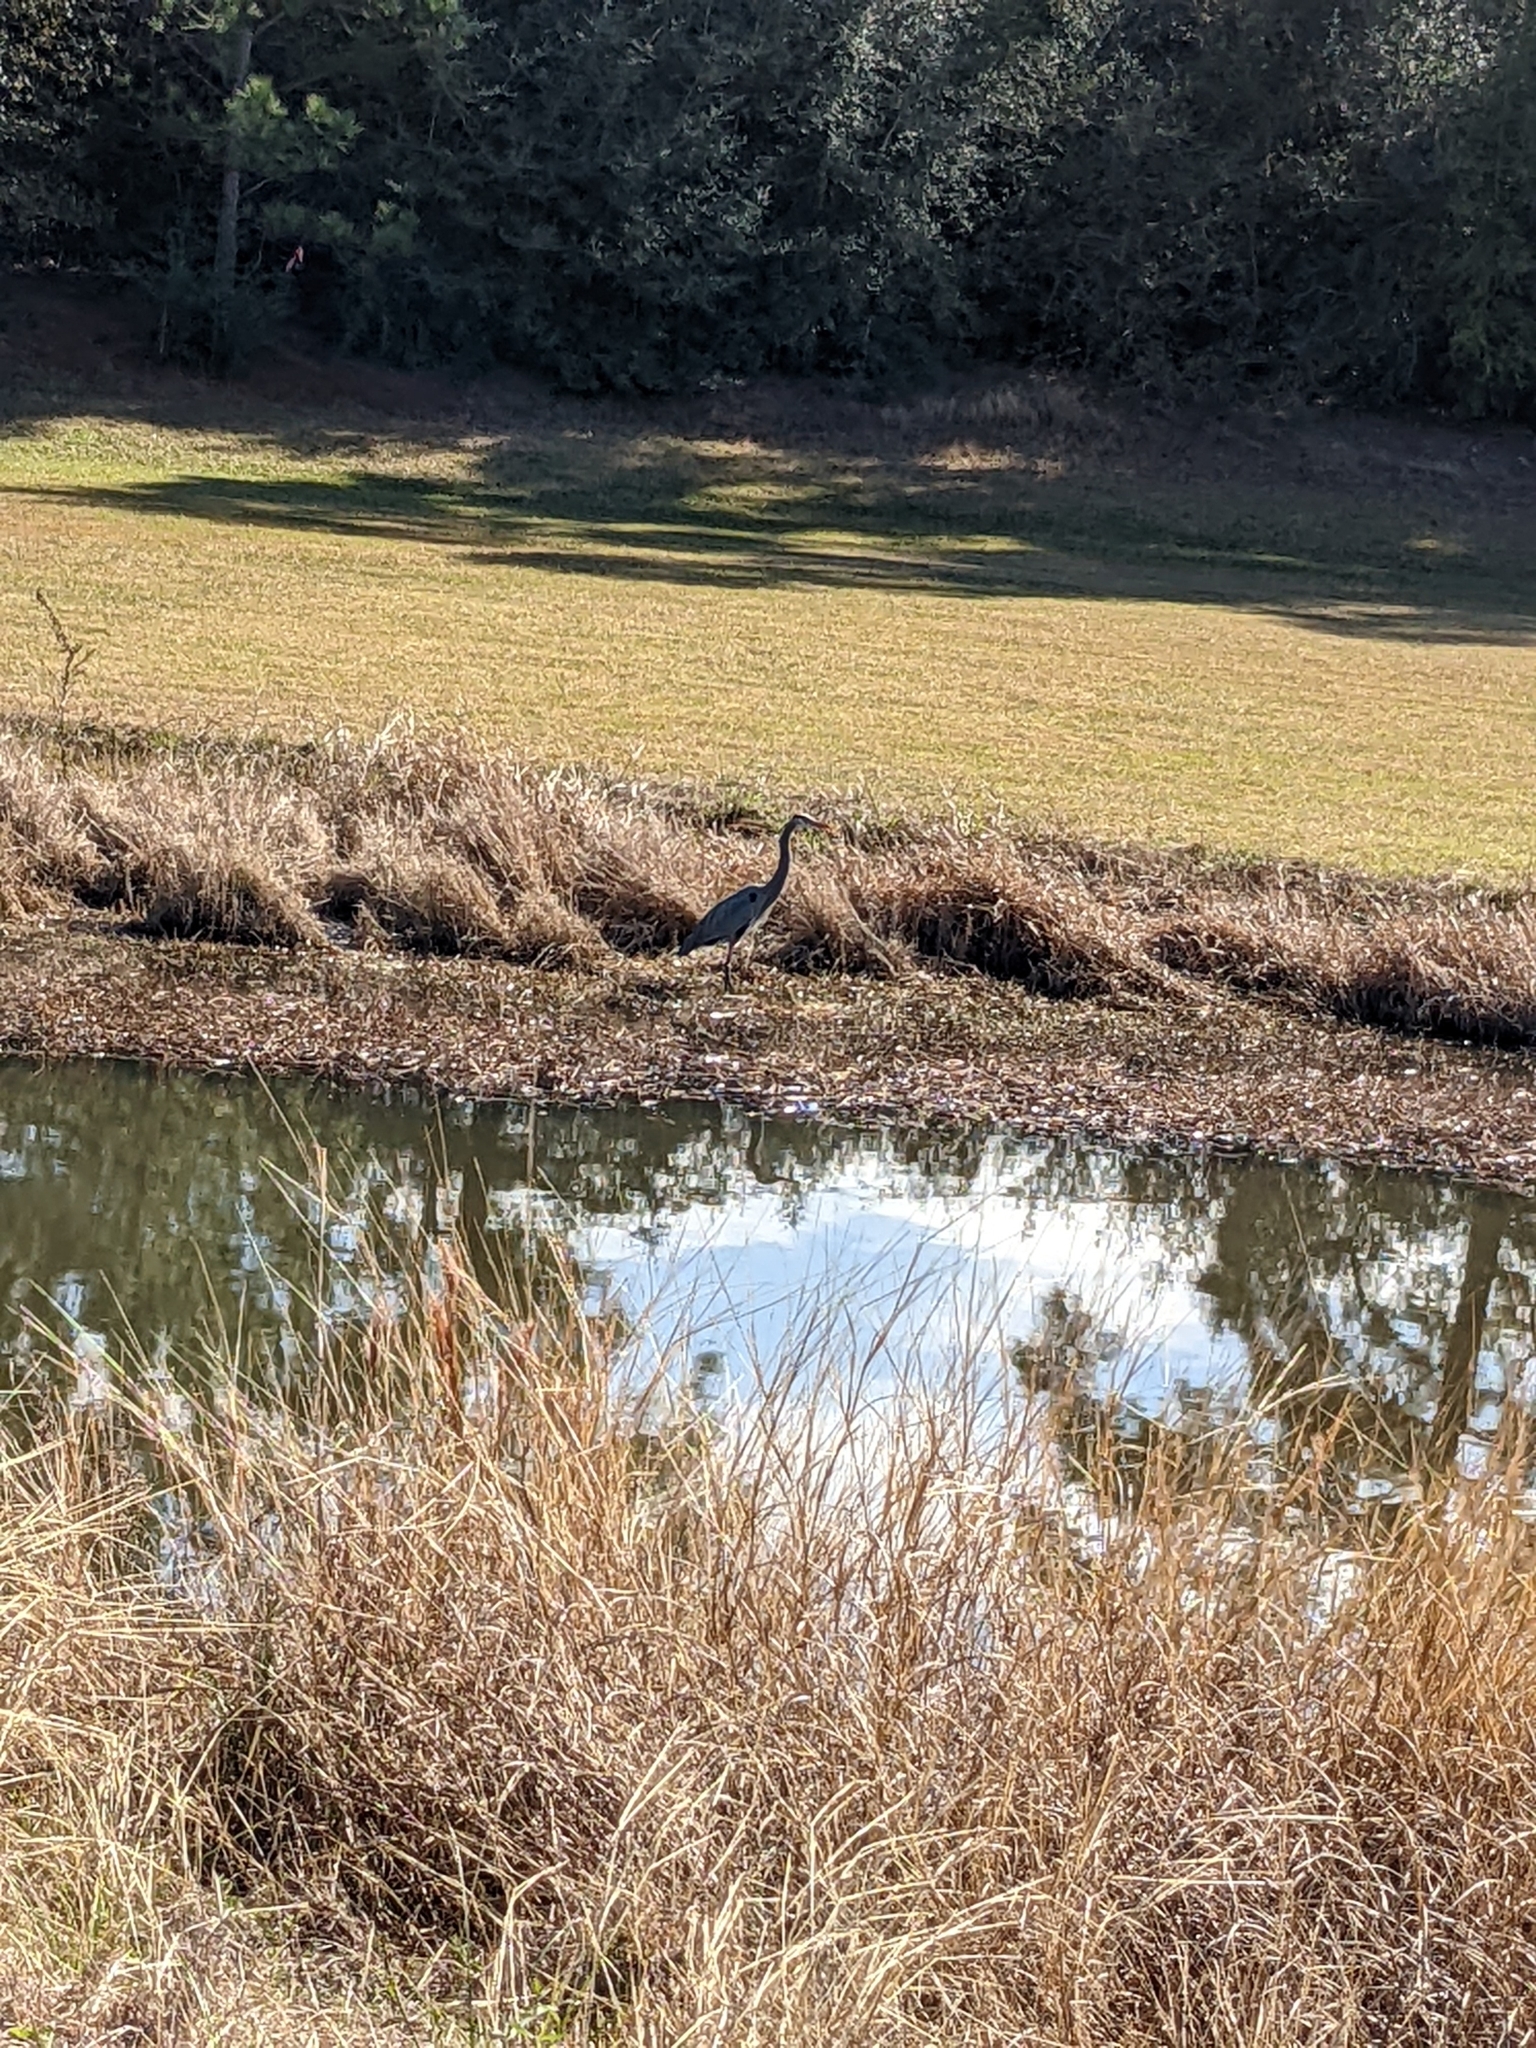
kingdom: Animalia
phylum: Chordata
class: Aves
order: Pelecaniformes
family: Ardeidae
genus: Ardea
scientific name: Ardea herodias
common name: Great blue heron
